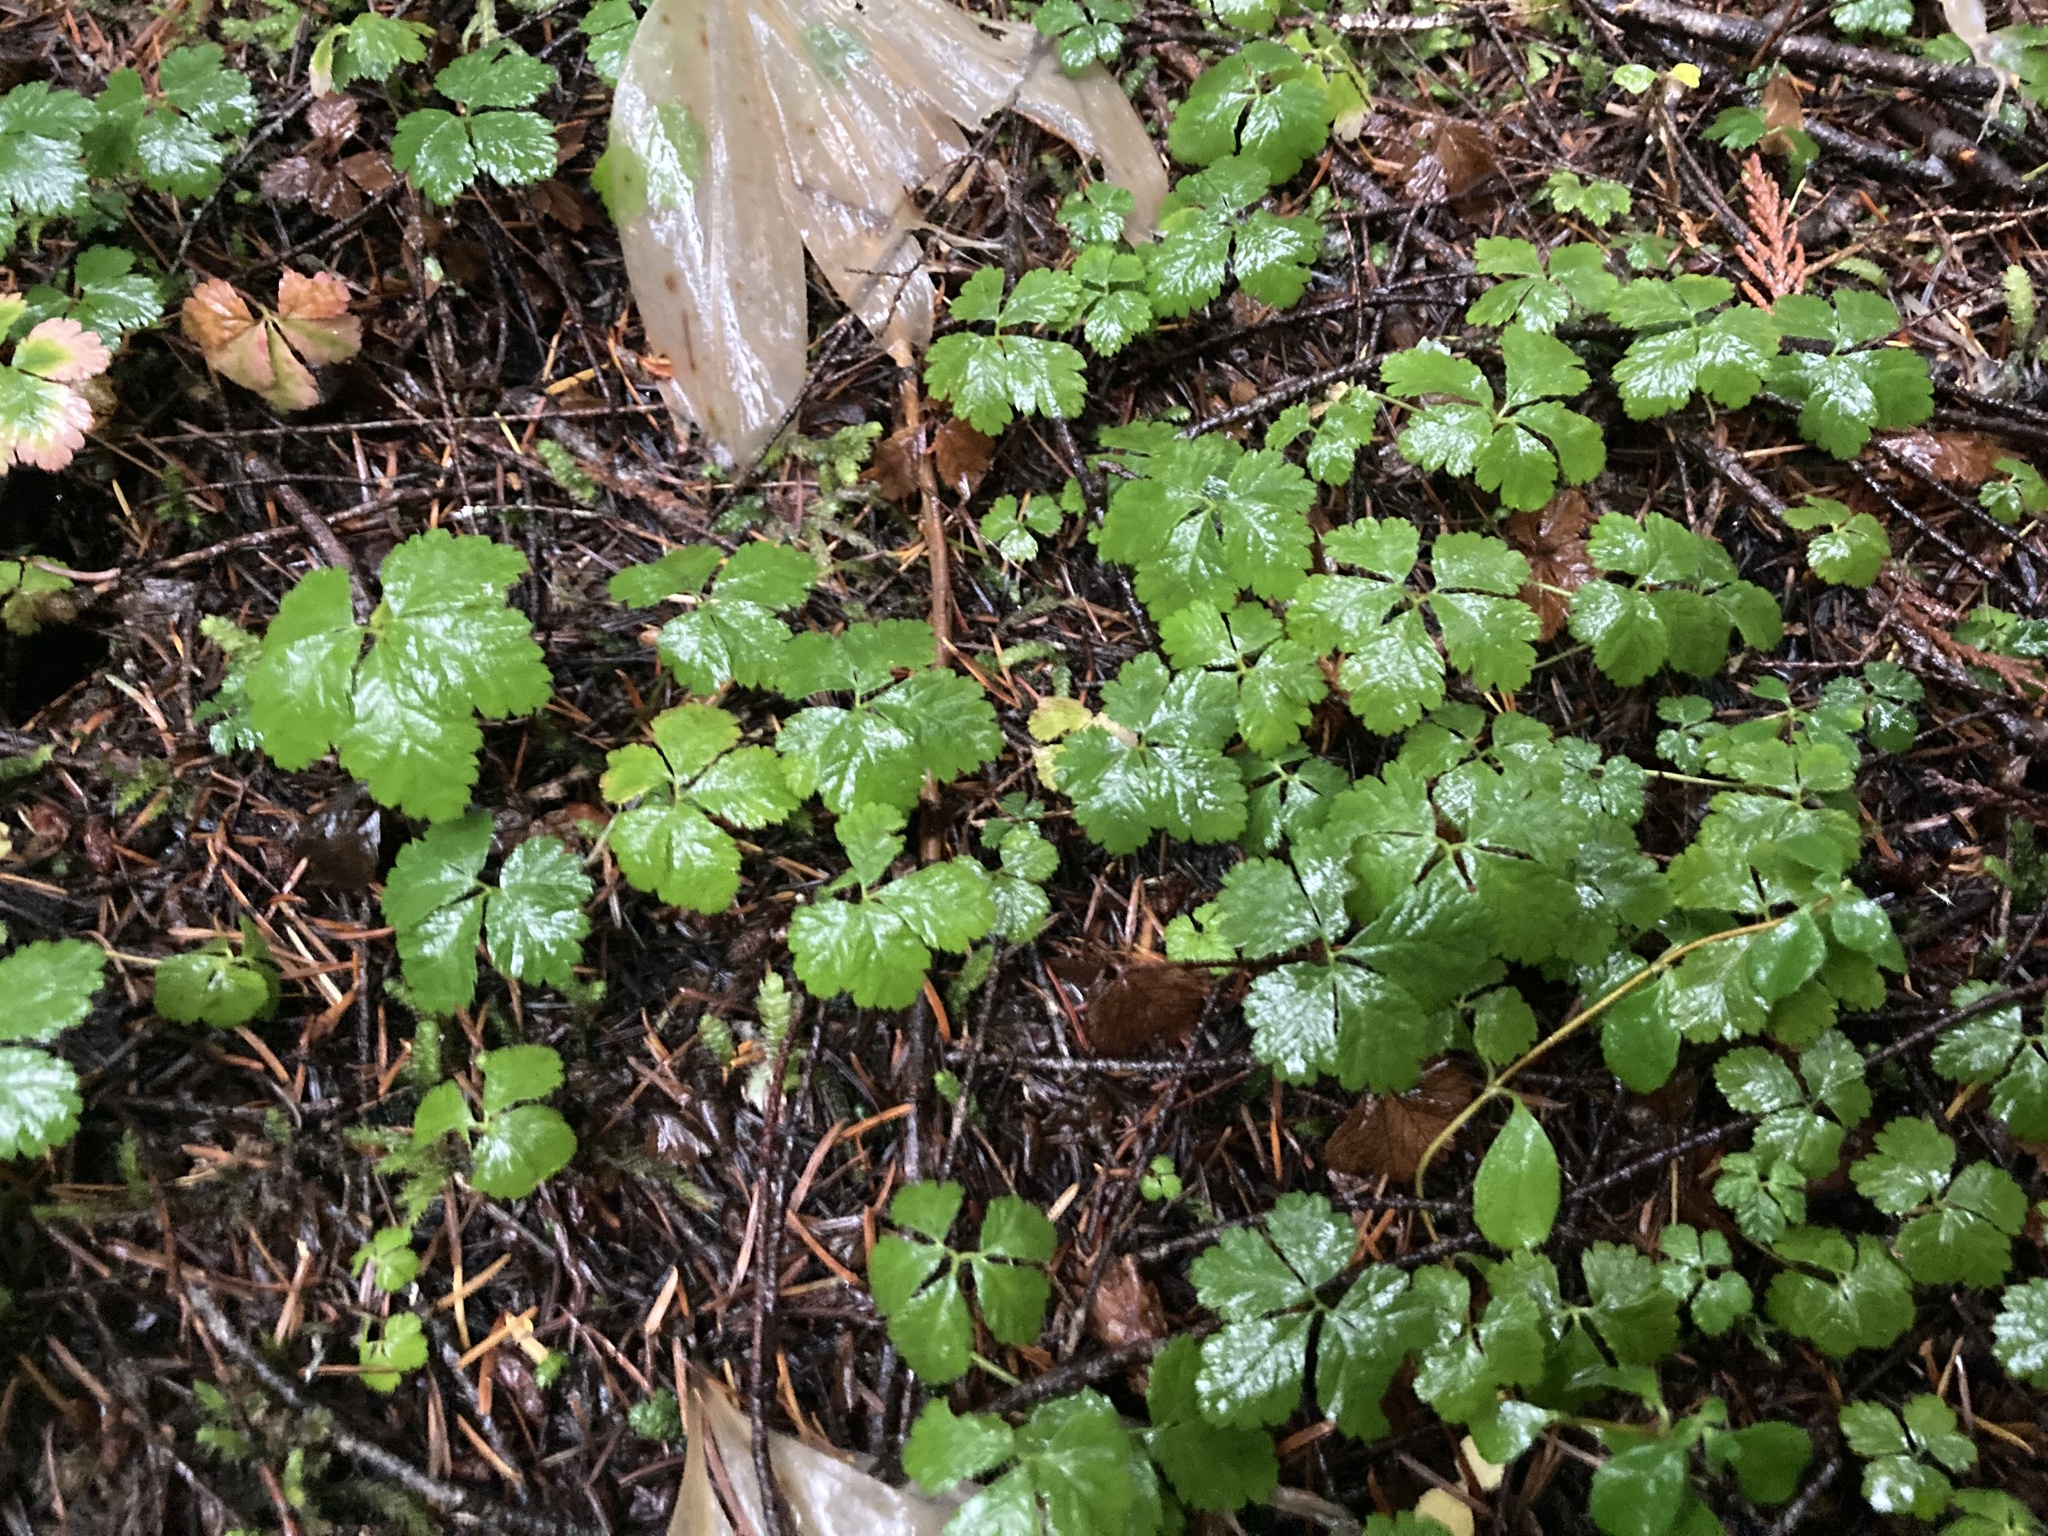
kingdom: Plantae
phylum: Tracheophyta
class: Magnoliopsida
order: Rosales
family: Rosaceae
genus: Rubus
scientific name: Rubus pedatus
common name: Creeping raspberry
